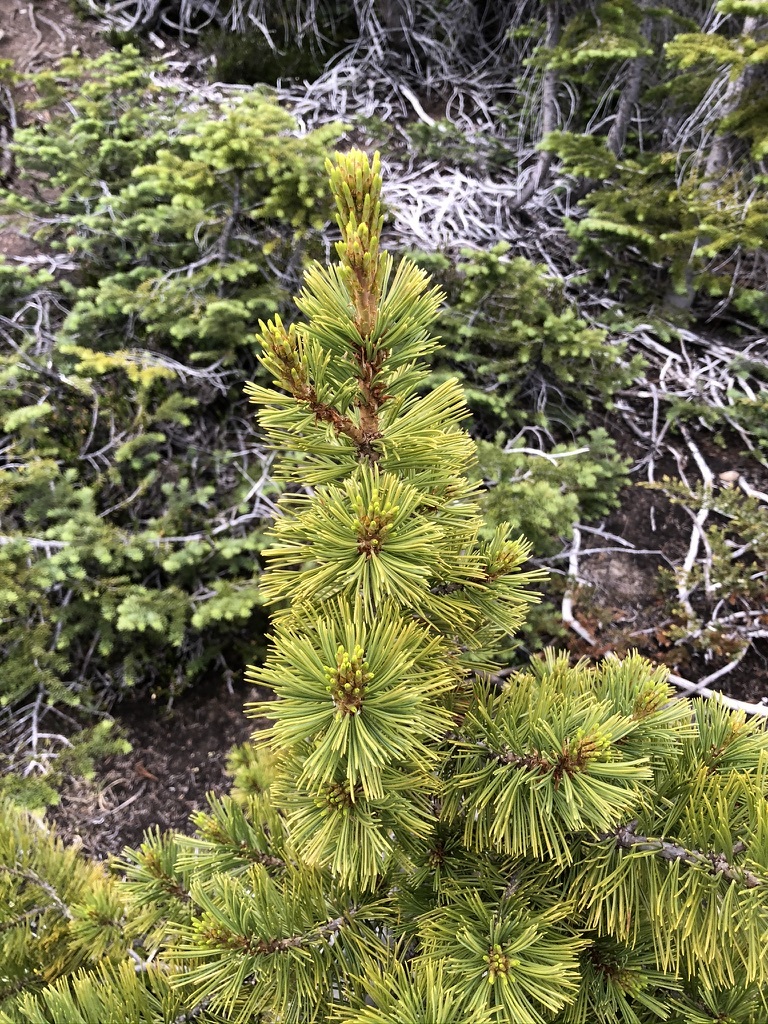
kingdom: Plantae
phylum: Tracheophyta
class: Pinopsida
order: Pinales
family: Pinaceae
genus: Pinus
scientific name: Pinus albicaulis
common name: Whitebark pine
